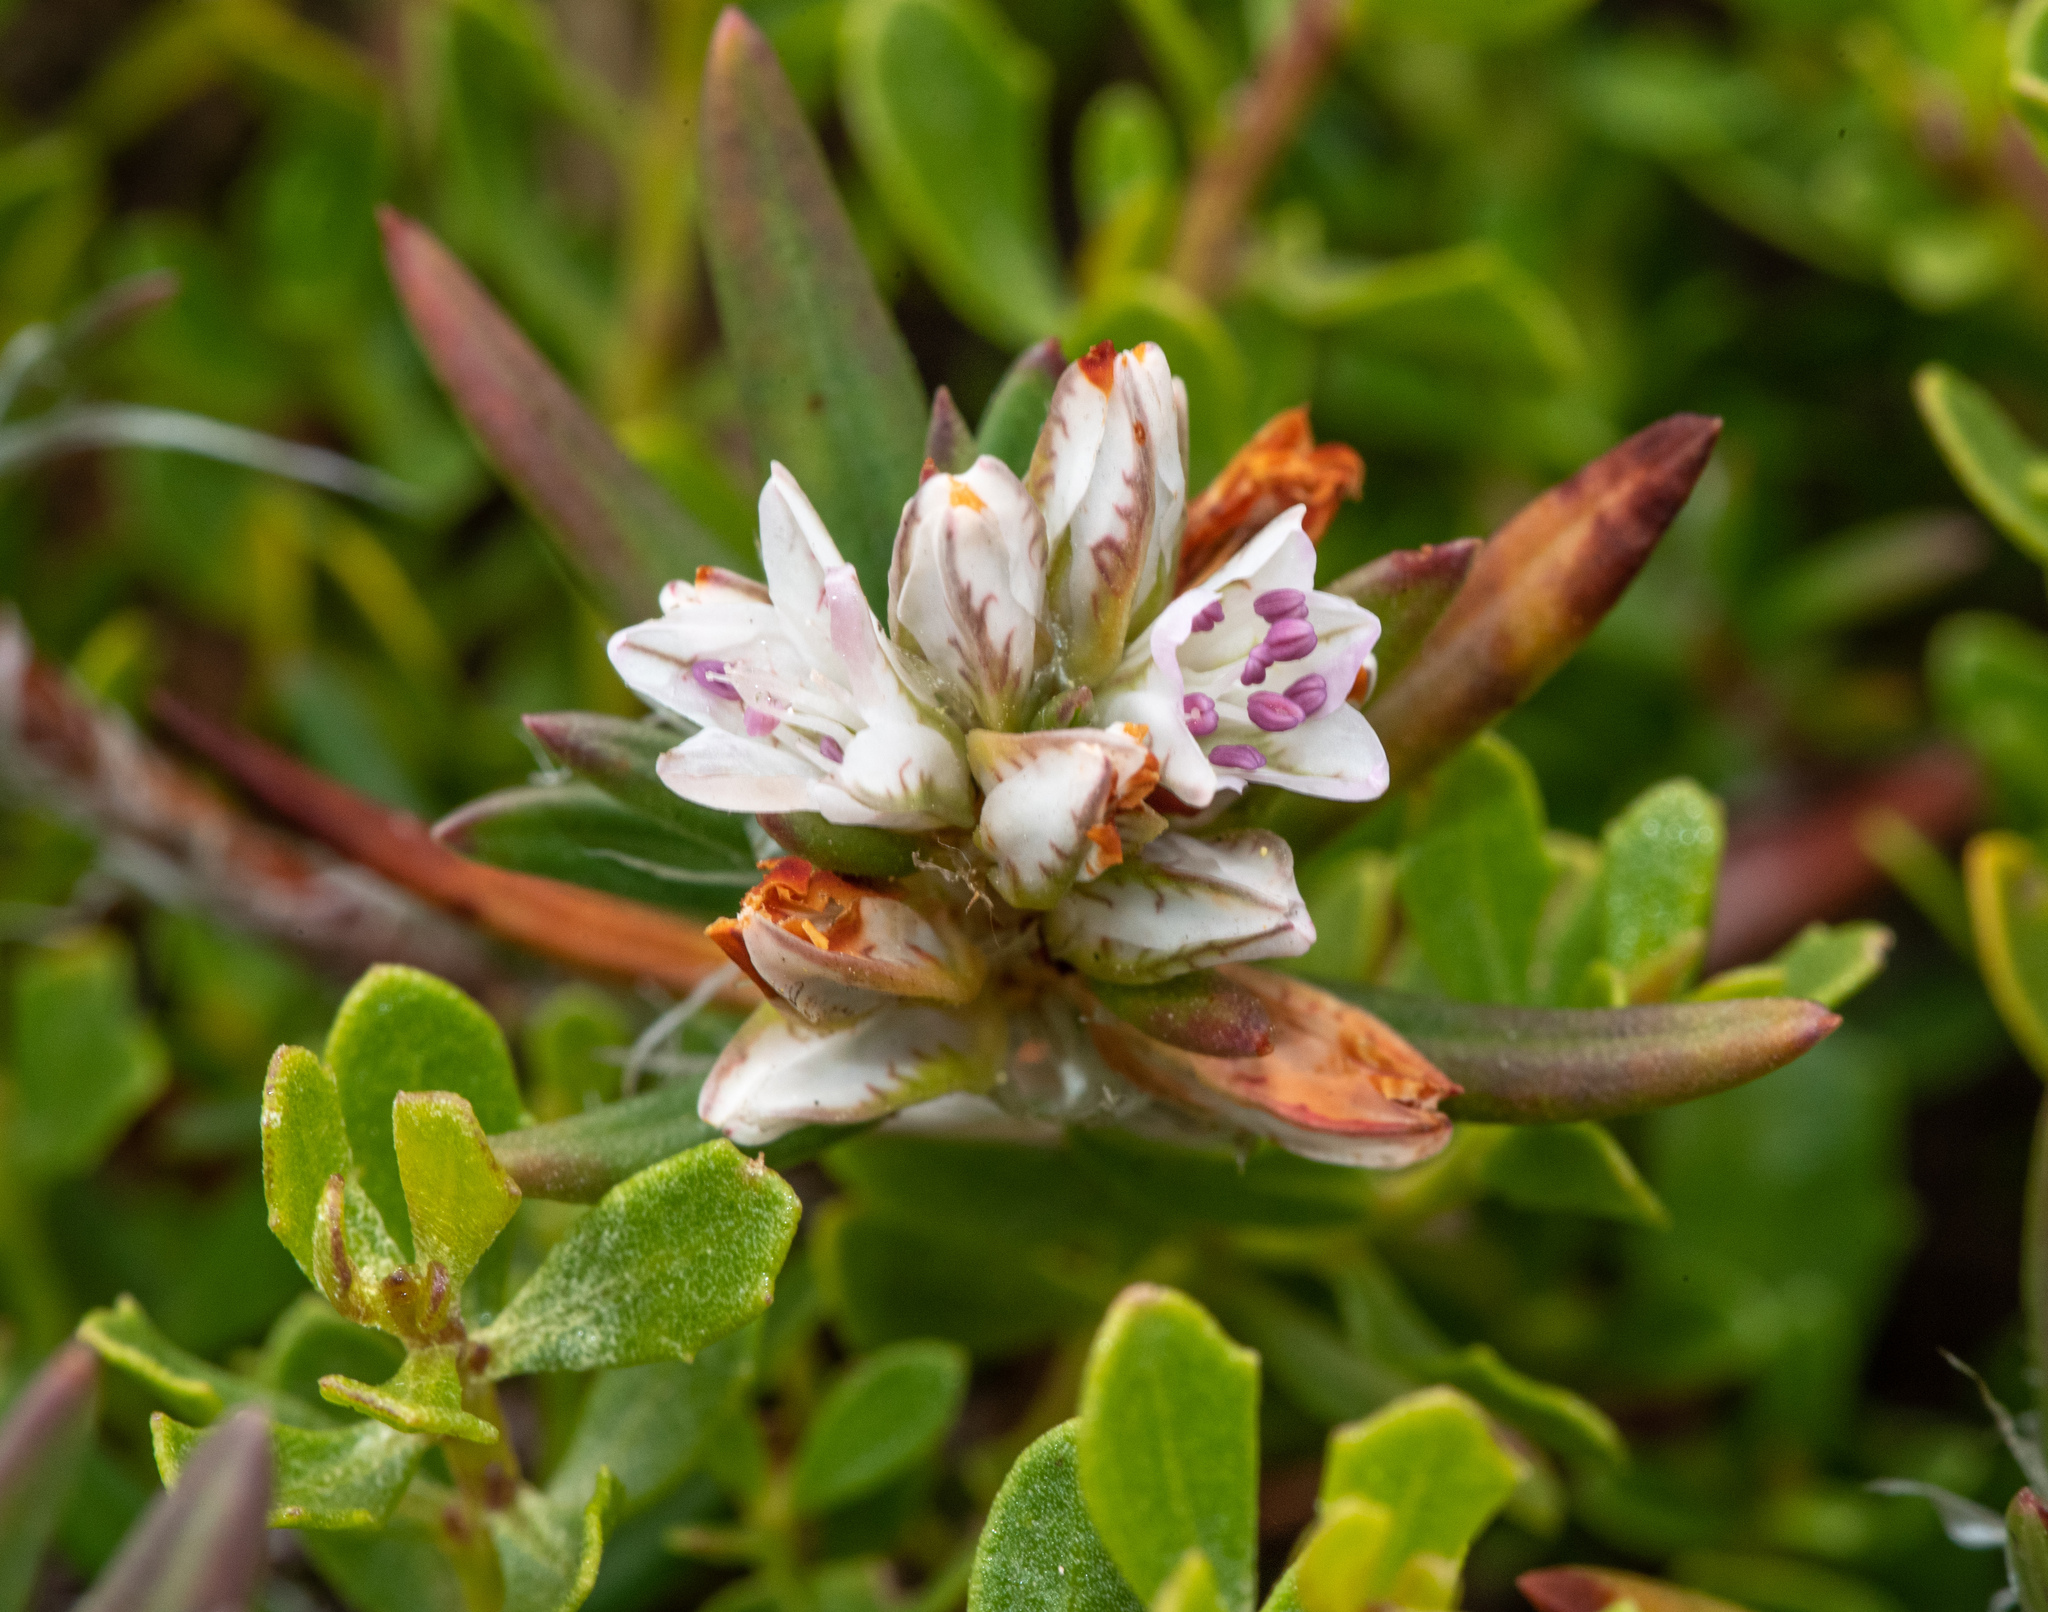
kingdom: Plantae
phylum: Tracheophyta
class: Magnoliopsida
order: Caryophyllales
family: Polygonaceae
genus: Polygonum
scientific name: Polygonum paronychia
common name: Dune knotweed
